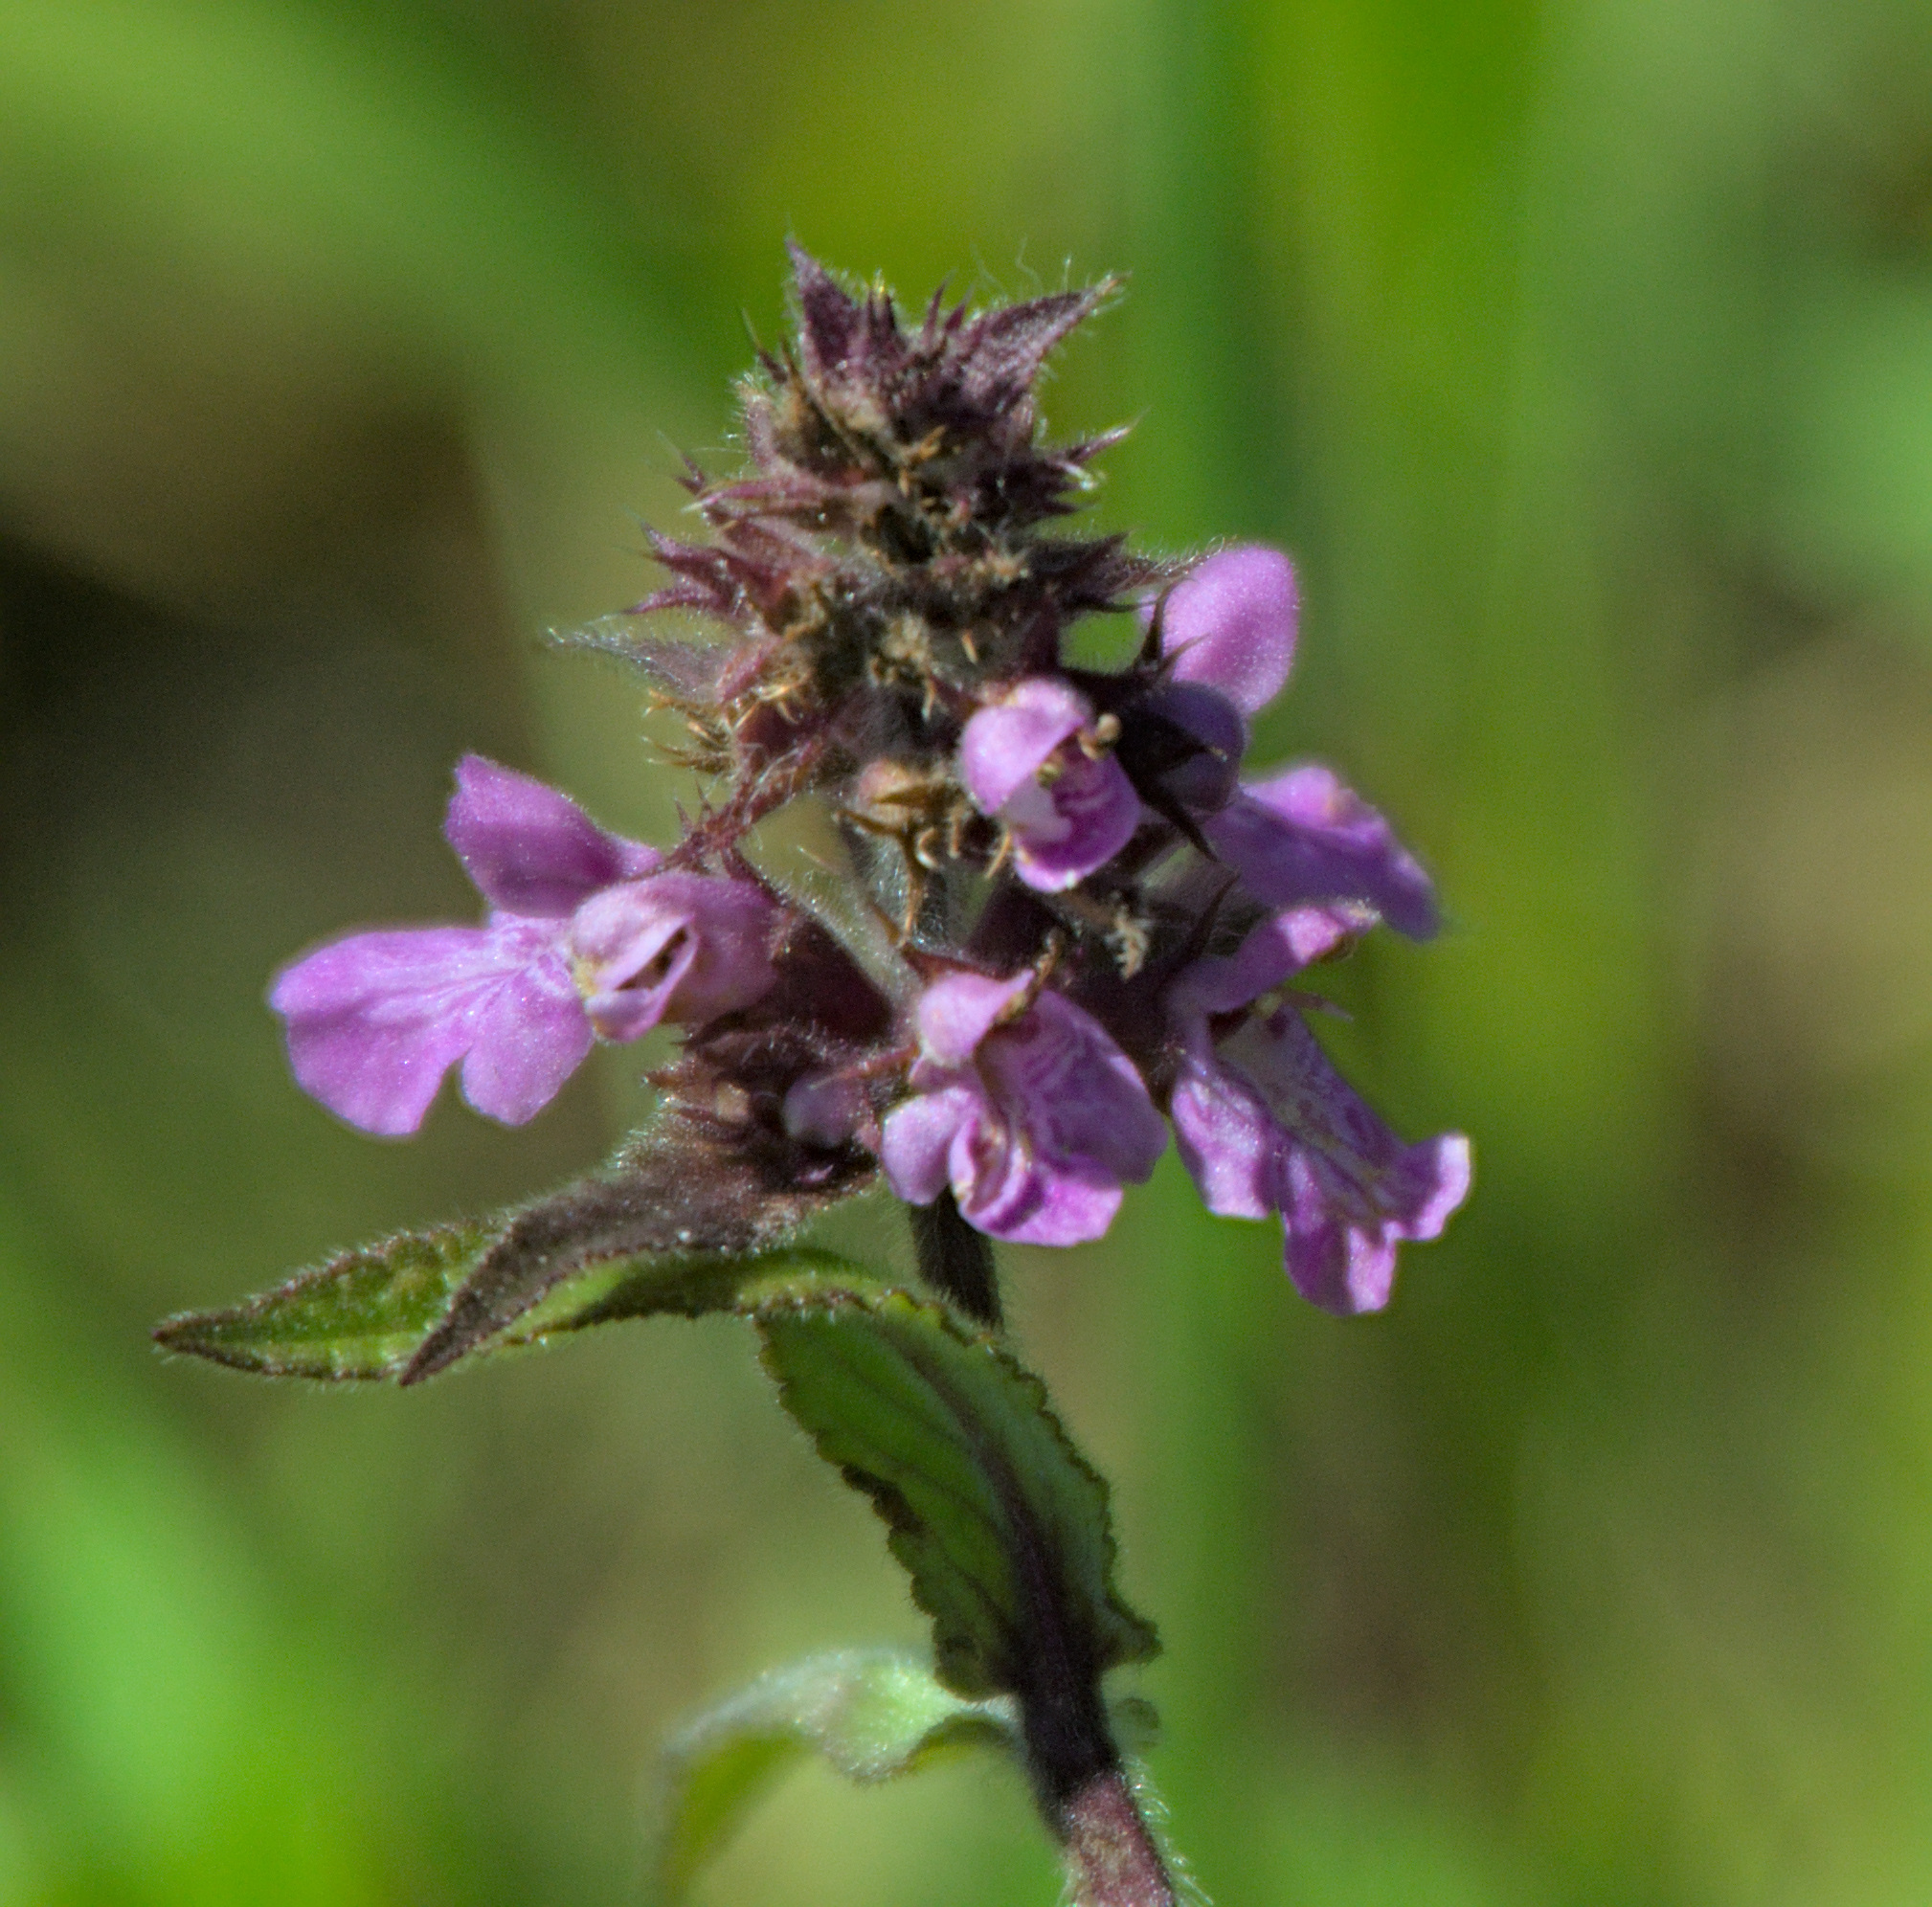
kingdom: Plantae
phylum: Tracheophyta
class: Magnoliopsida
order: Lamiales
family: Lamiaceae
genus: Stachys
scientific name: Stachys palustris
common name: Marsh woundwort
